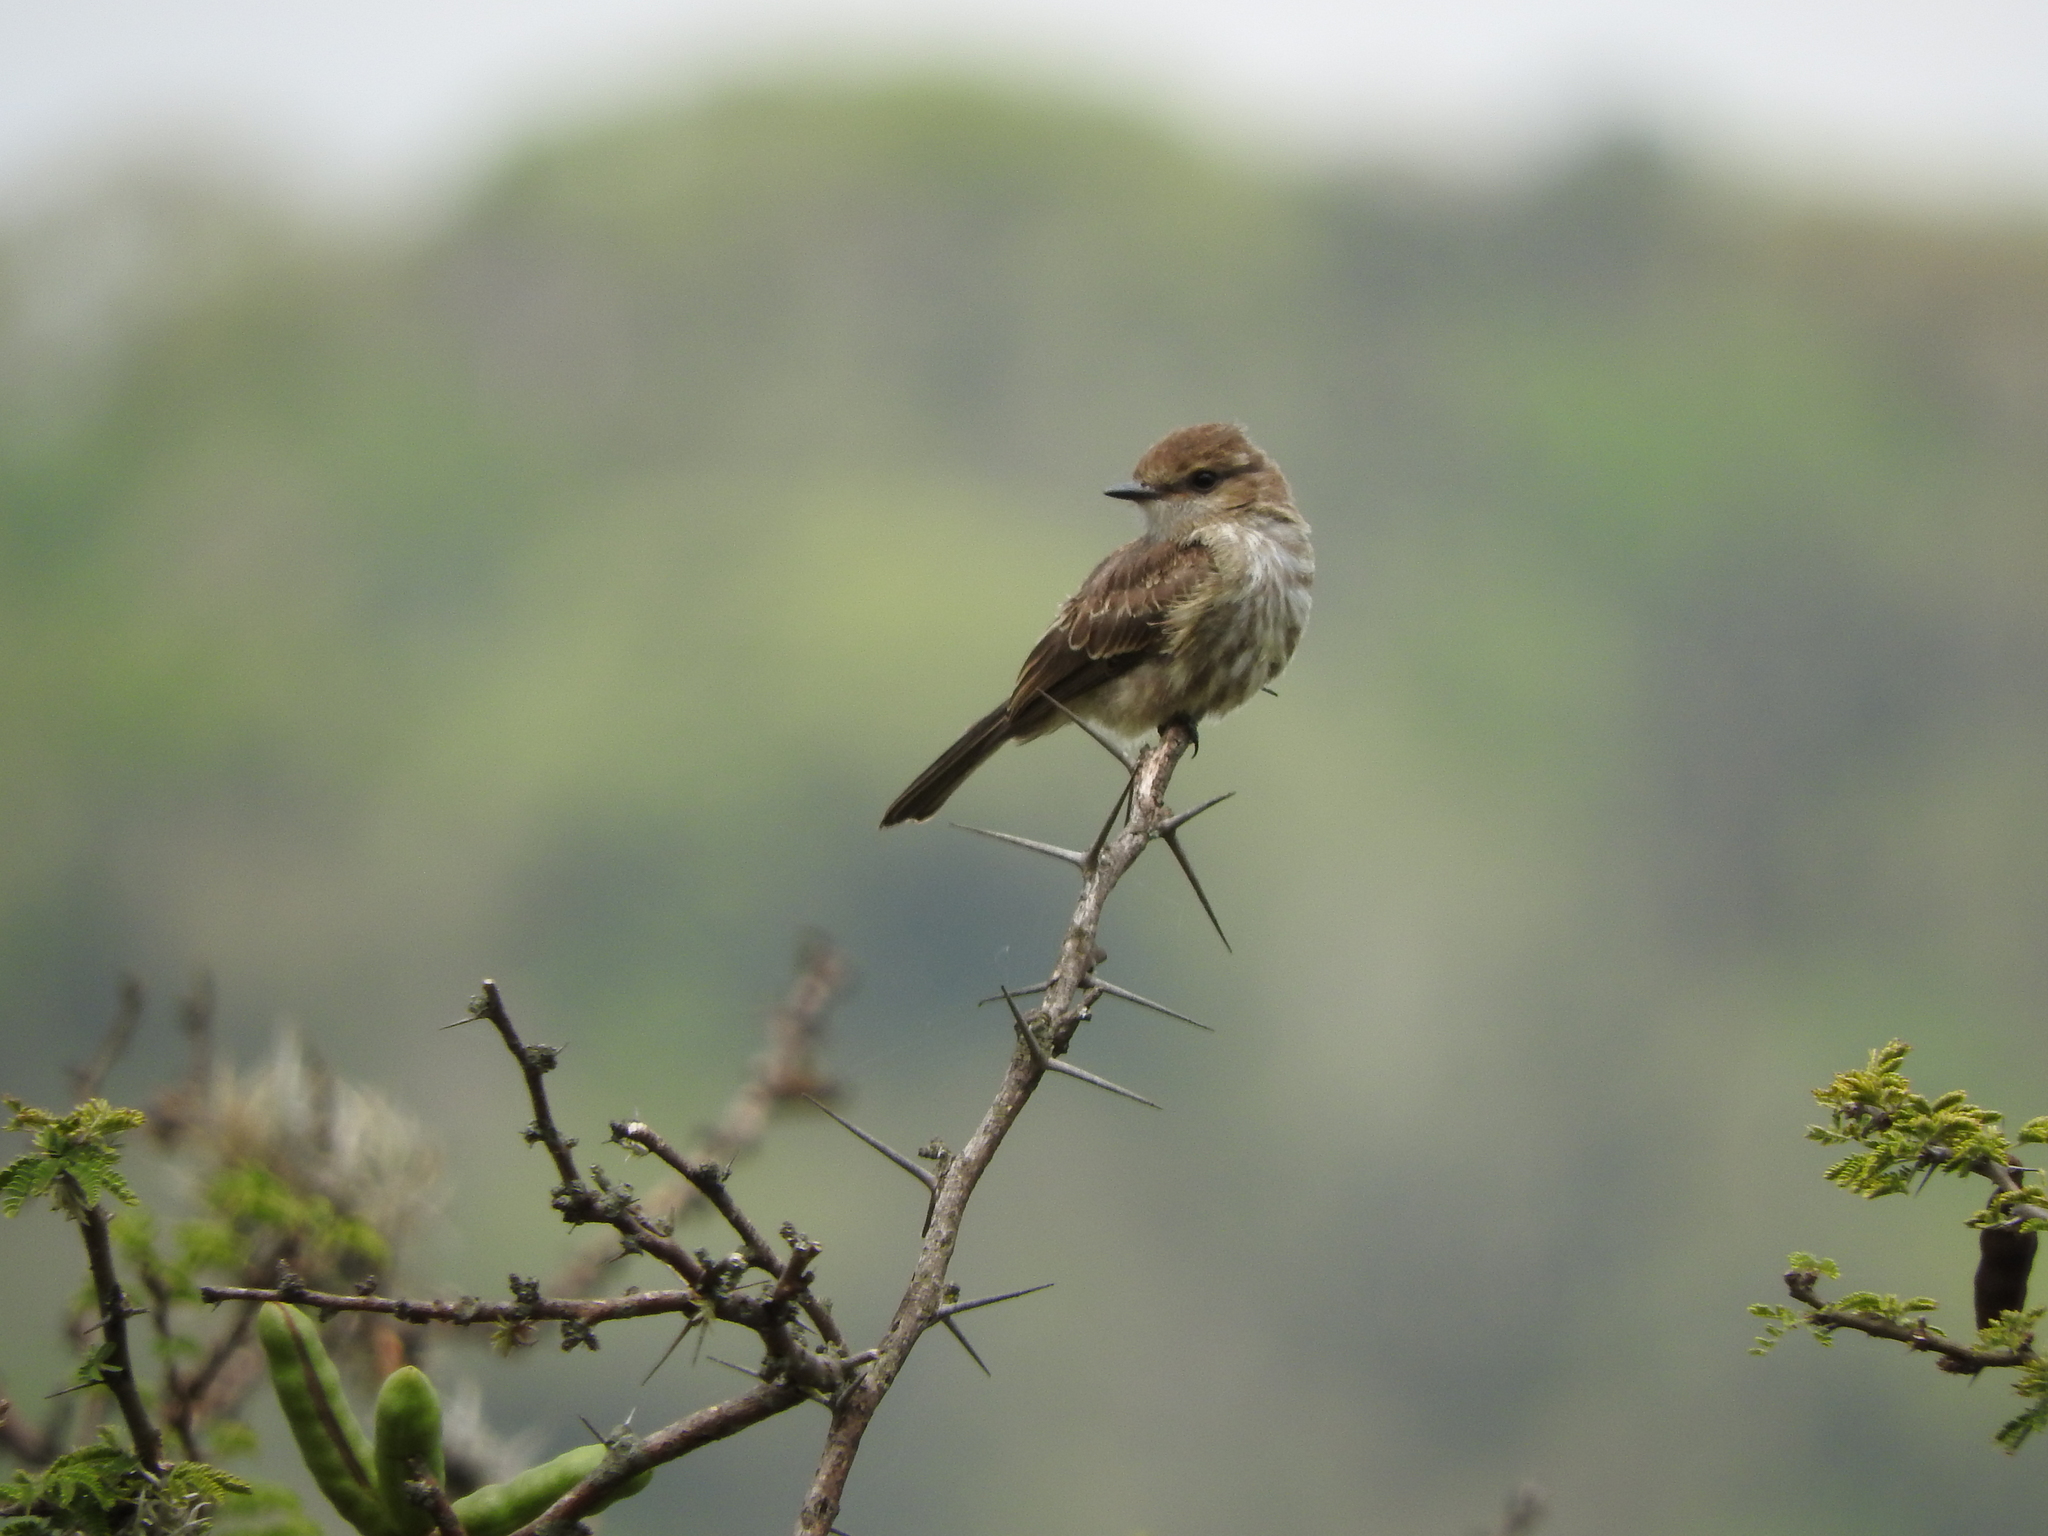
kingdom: Animalia
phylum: Chordata
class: Aves
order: Passeriformes
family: Tyrannidae
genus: Pyrocephalus
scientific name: Pyrocephalus rubinus
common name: Vermilion flycatcher
